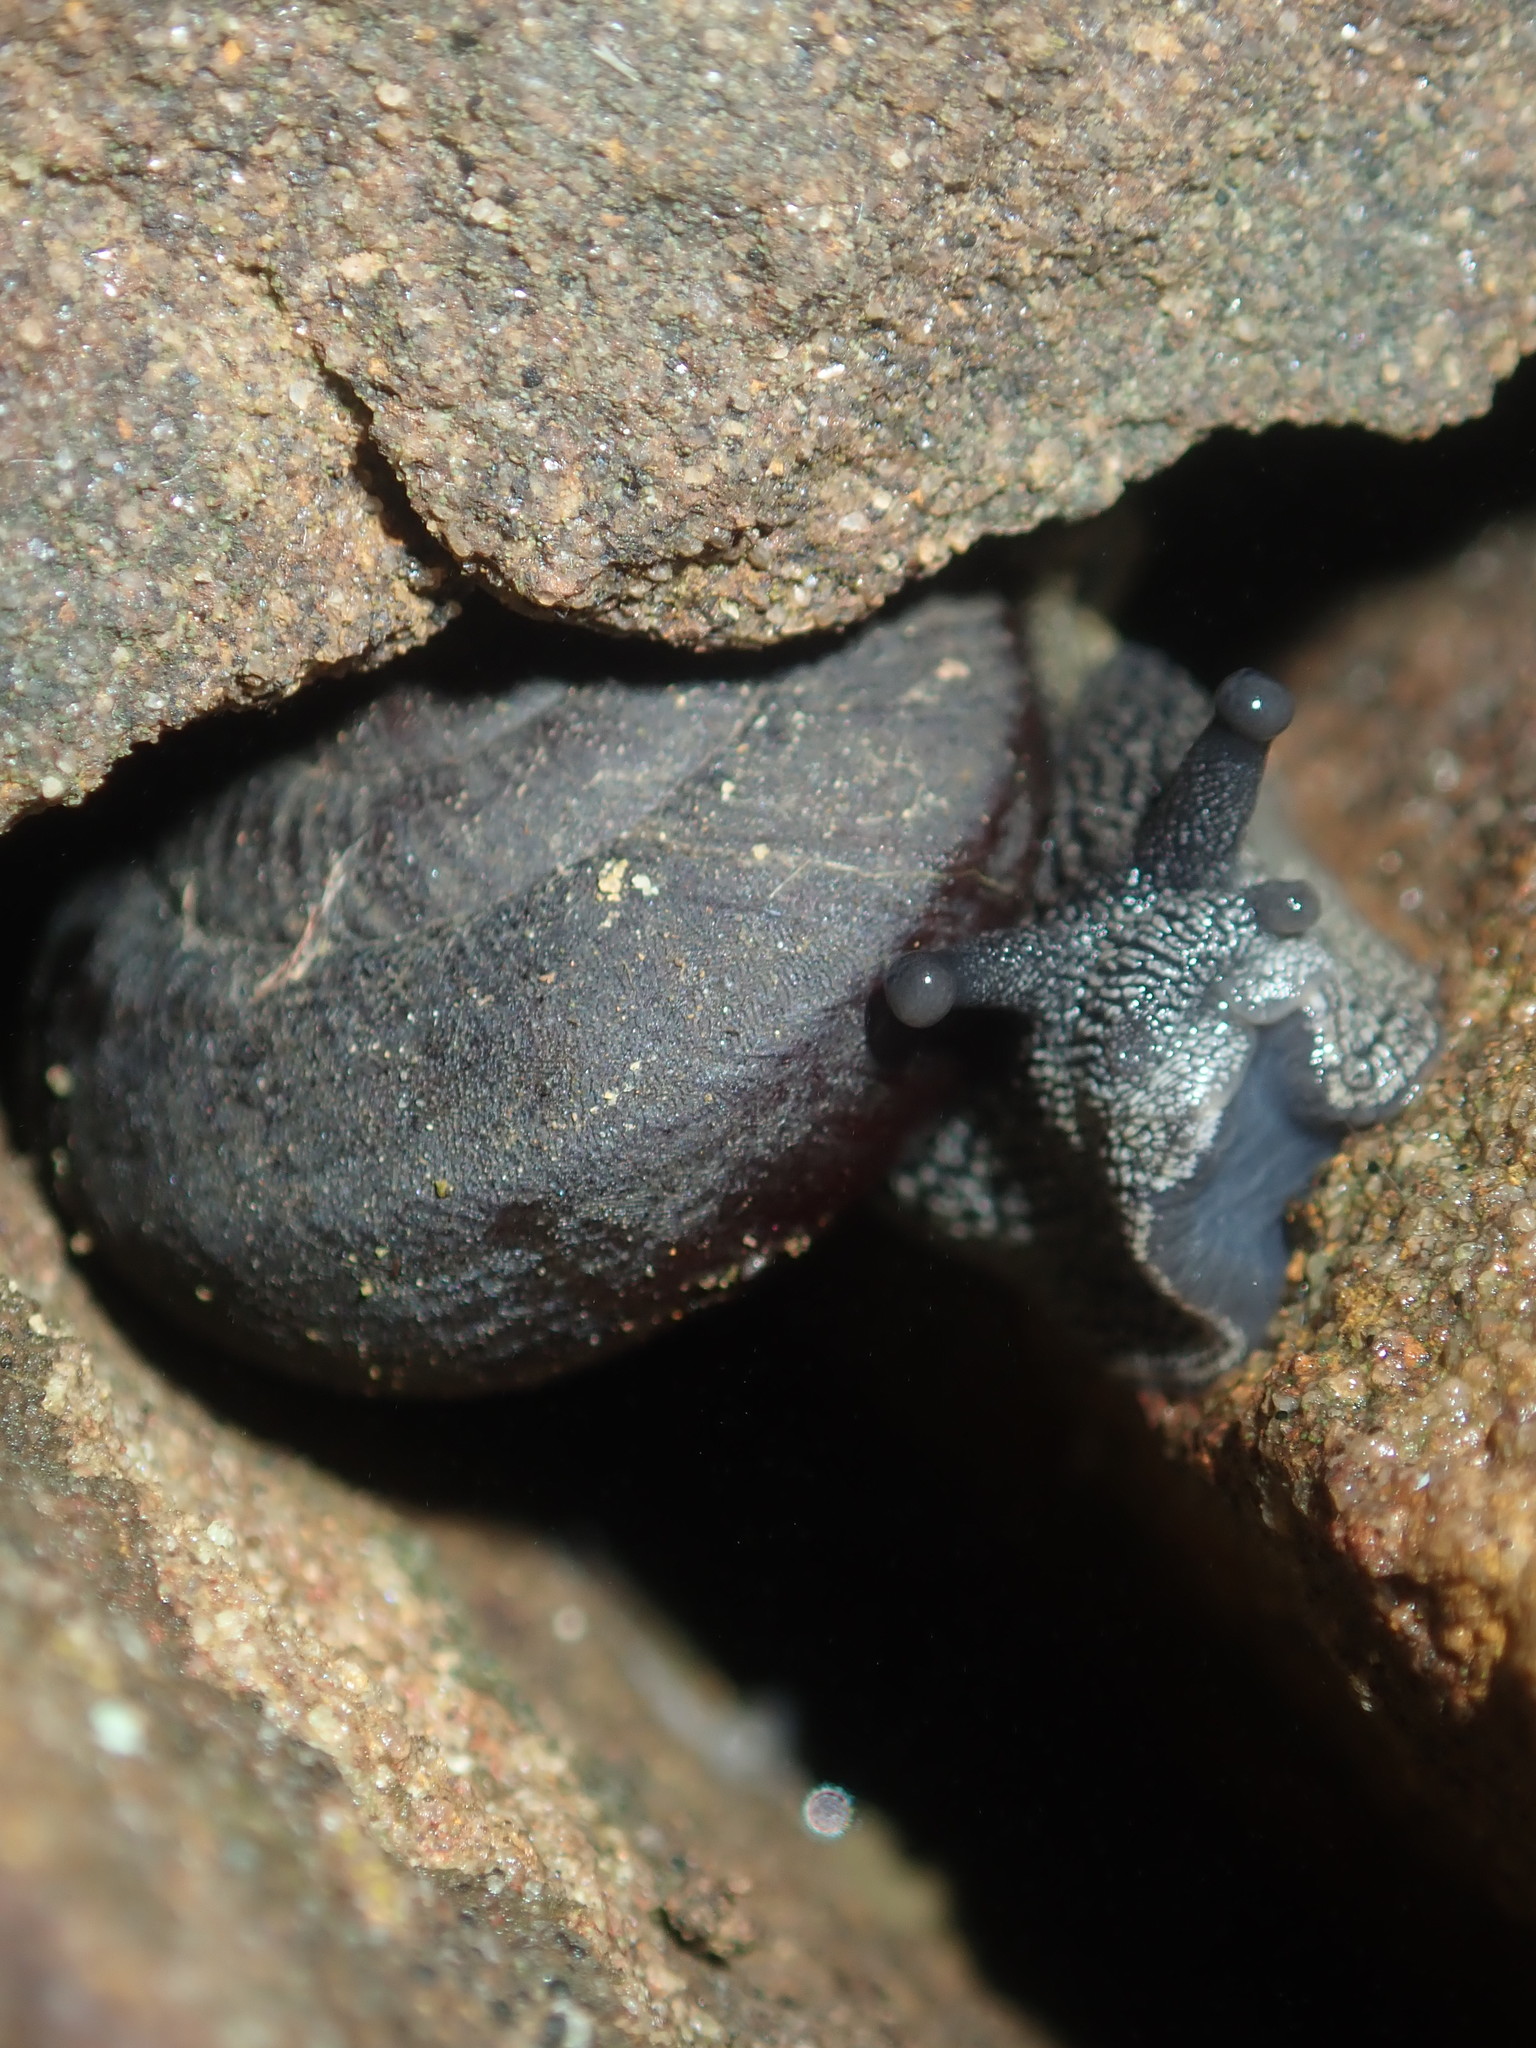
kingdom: Animalia
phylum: Mollusca
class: Gastropoda
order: Stylommatophora
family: Camaenidae
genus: Pommerhelix
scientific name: Pommerhelix monacha
